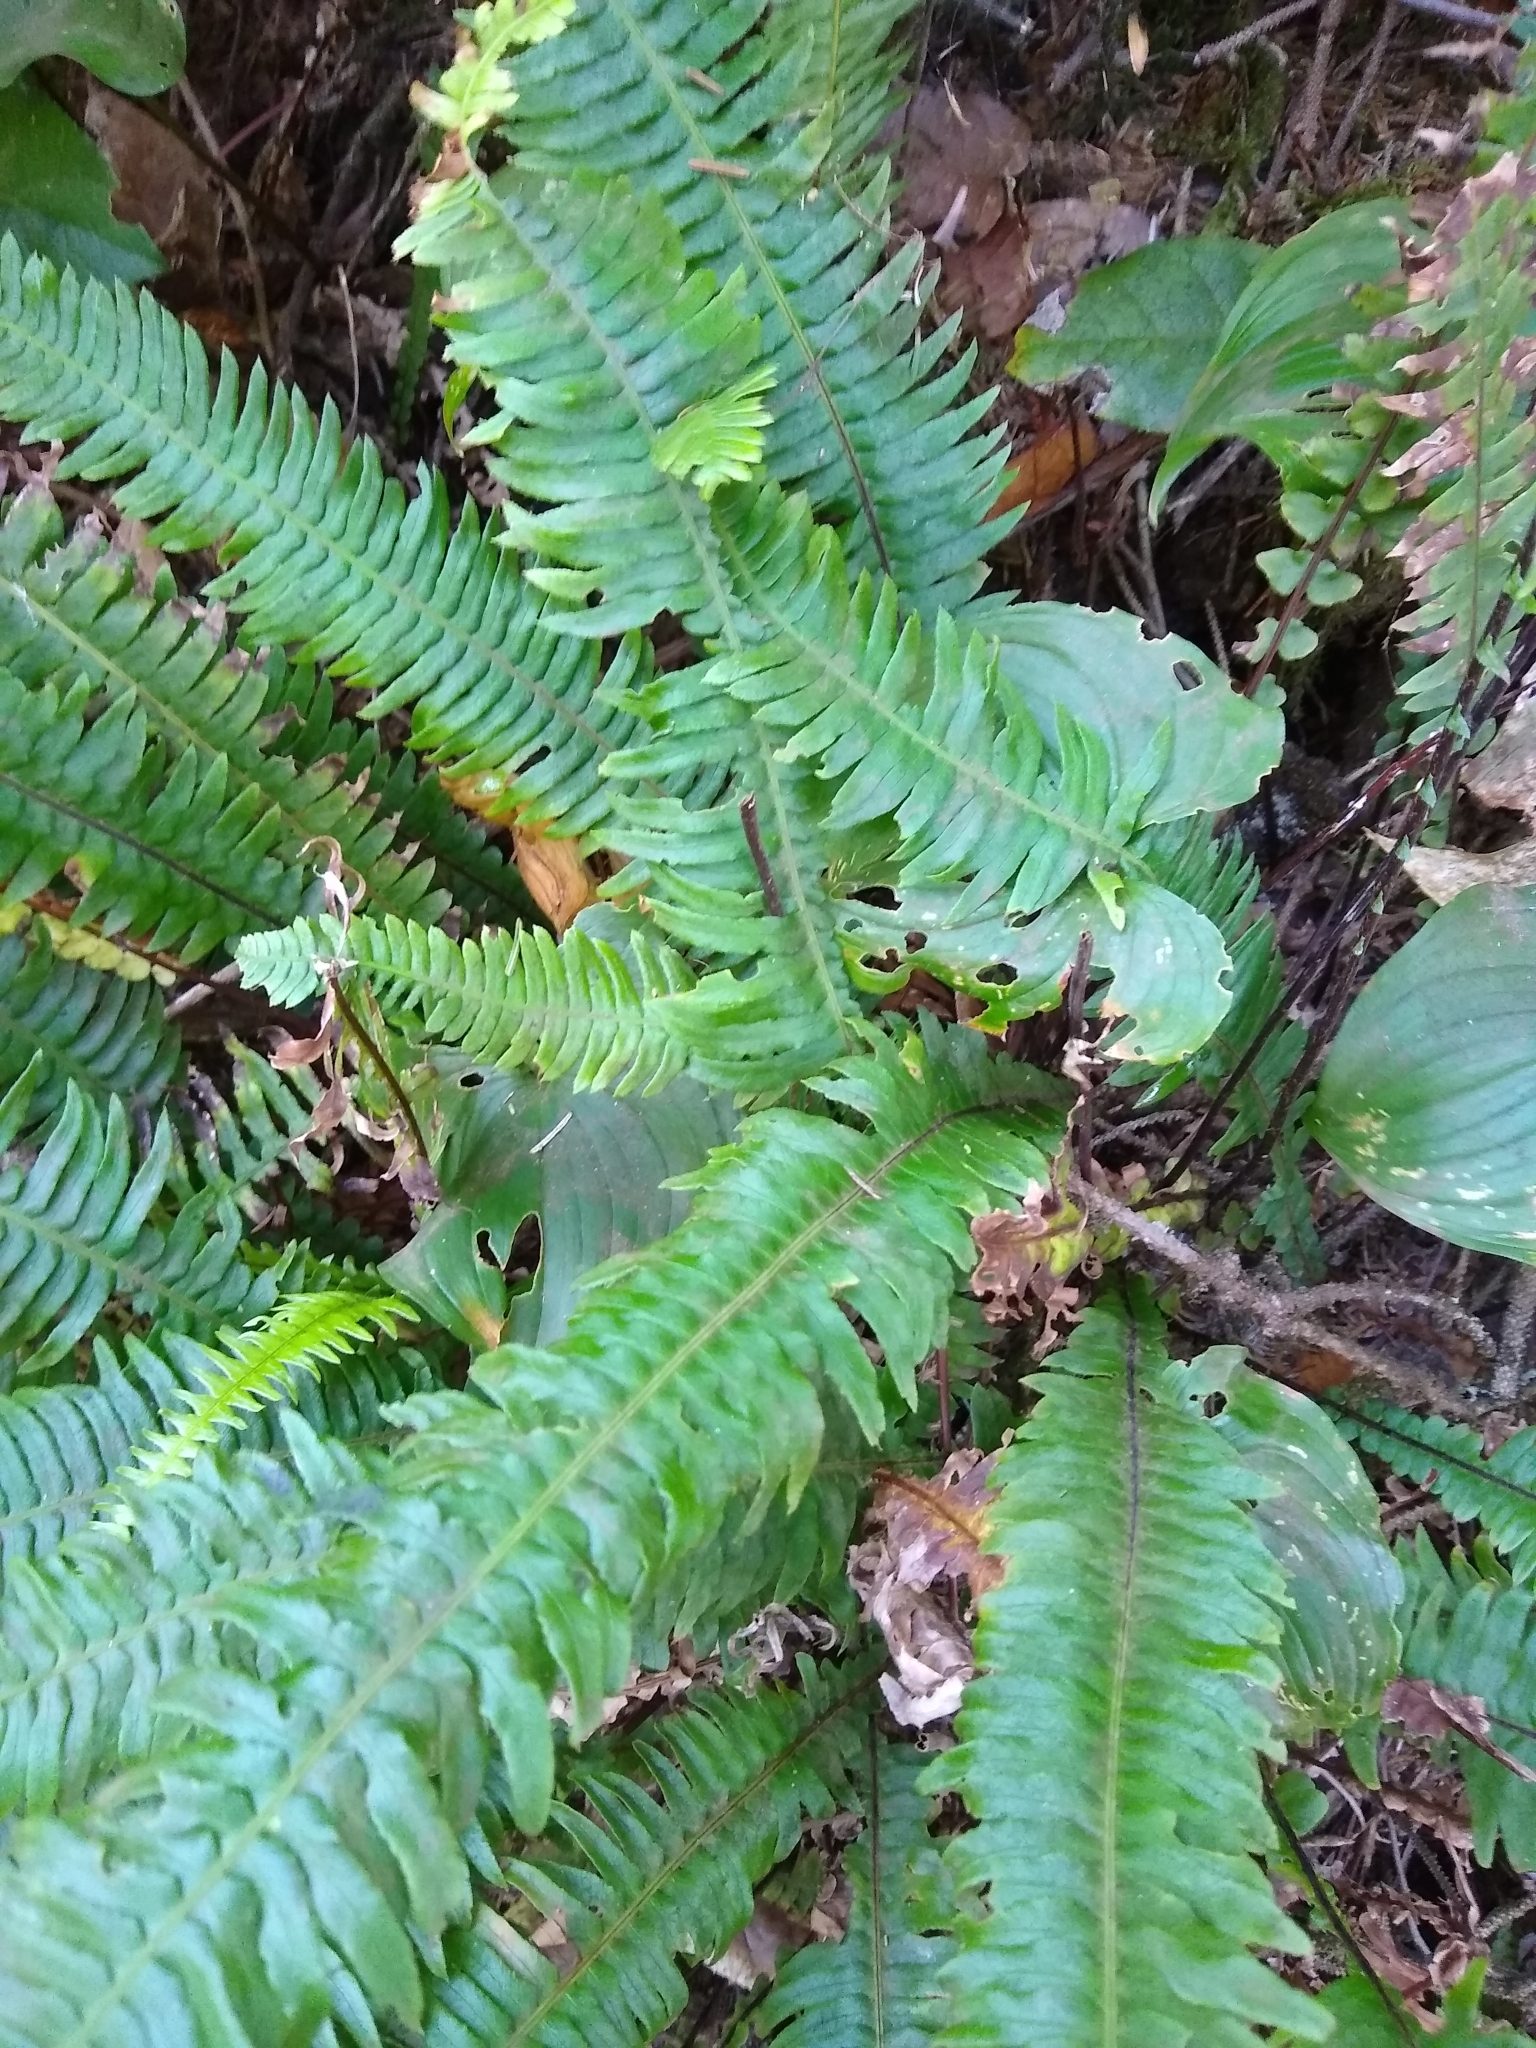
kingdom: Plantae
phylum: Tracheophyta
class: Polypodiopsida
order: Polypodiales
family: Blechnaceae
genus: Struthiopteris
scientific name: Struthiopteris spicant
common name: Deer fern
